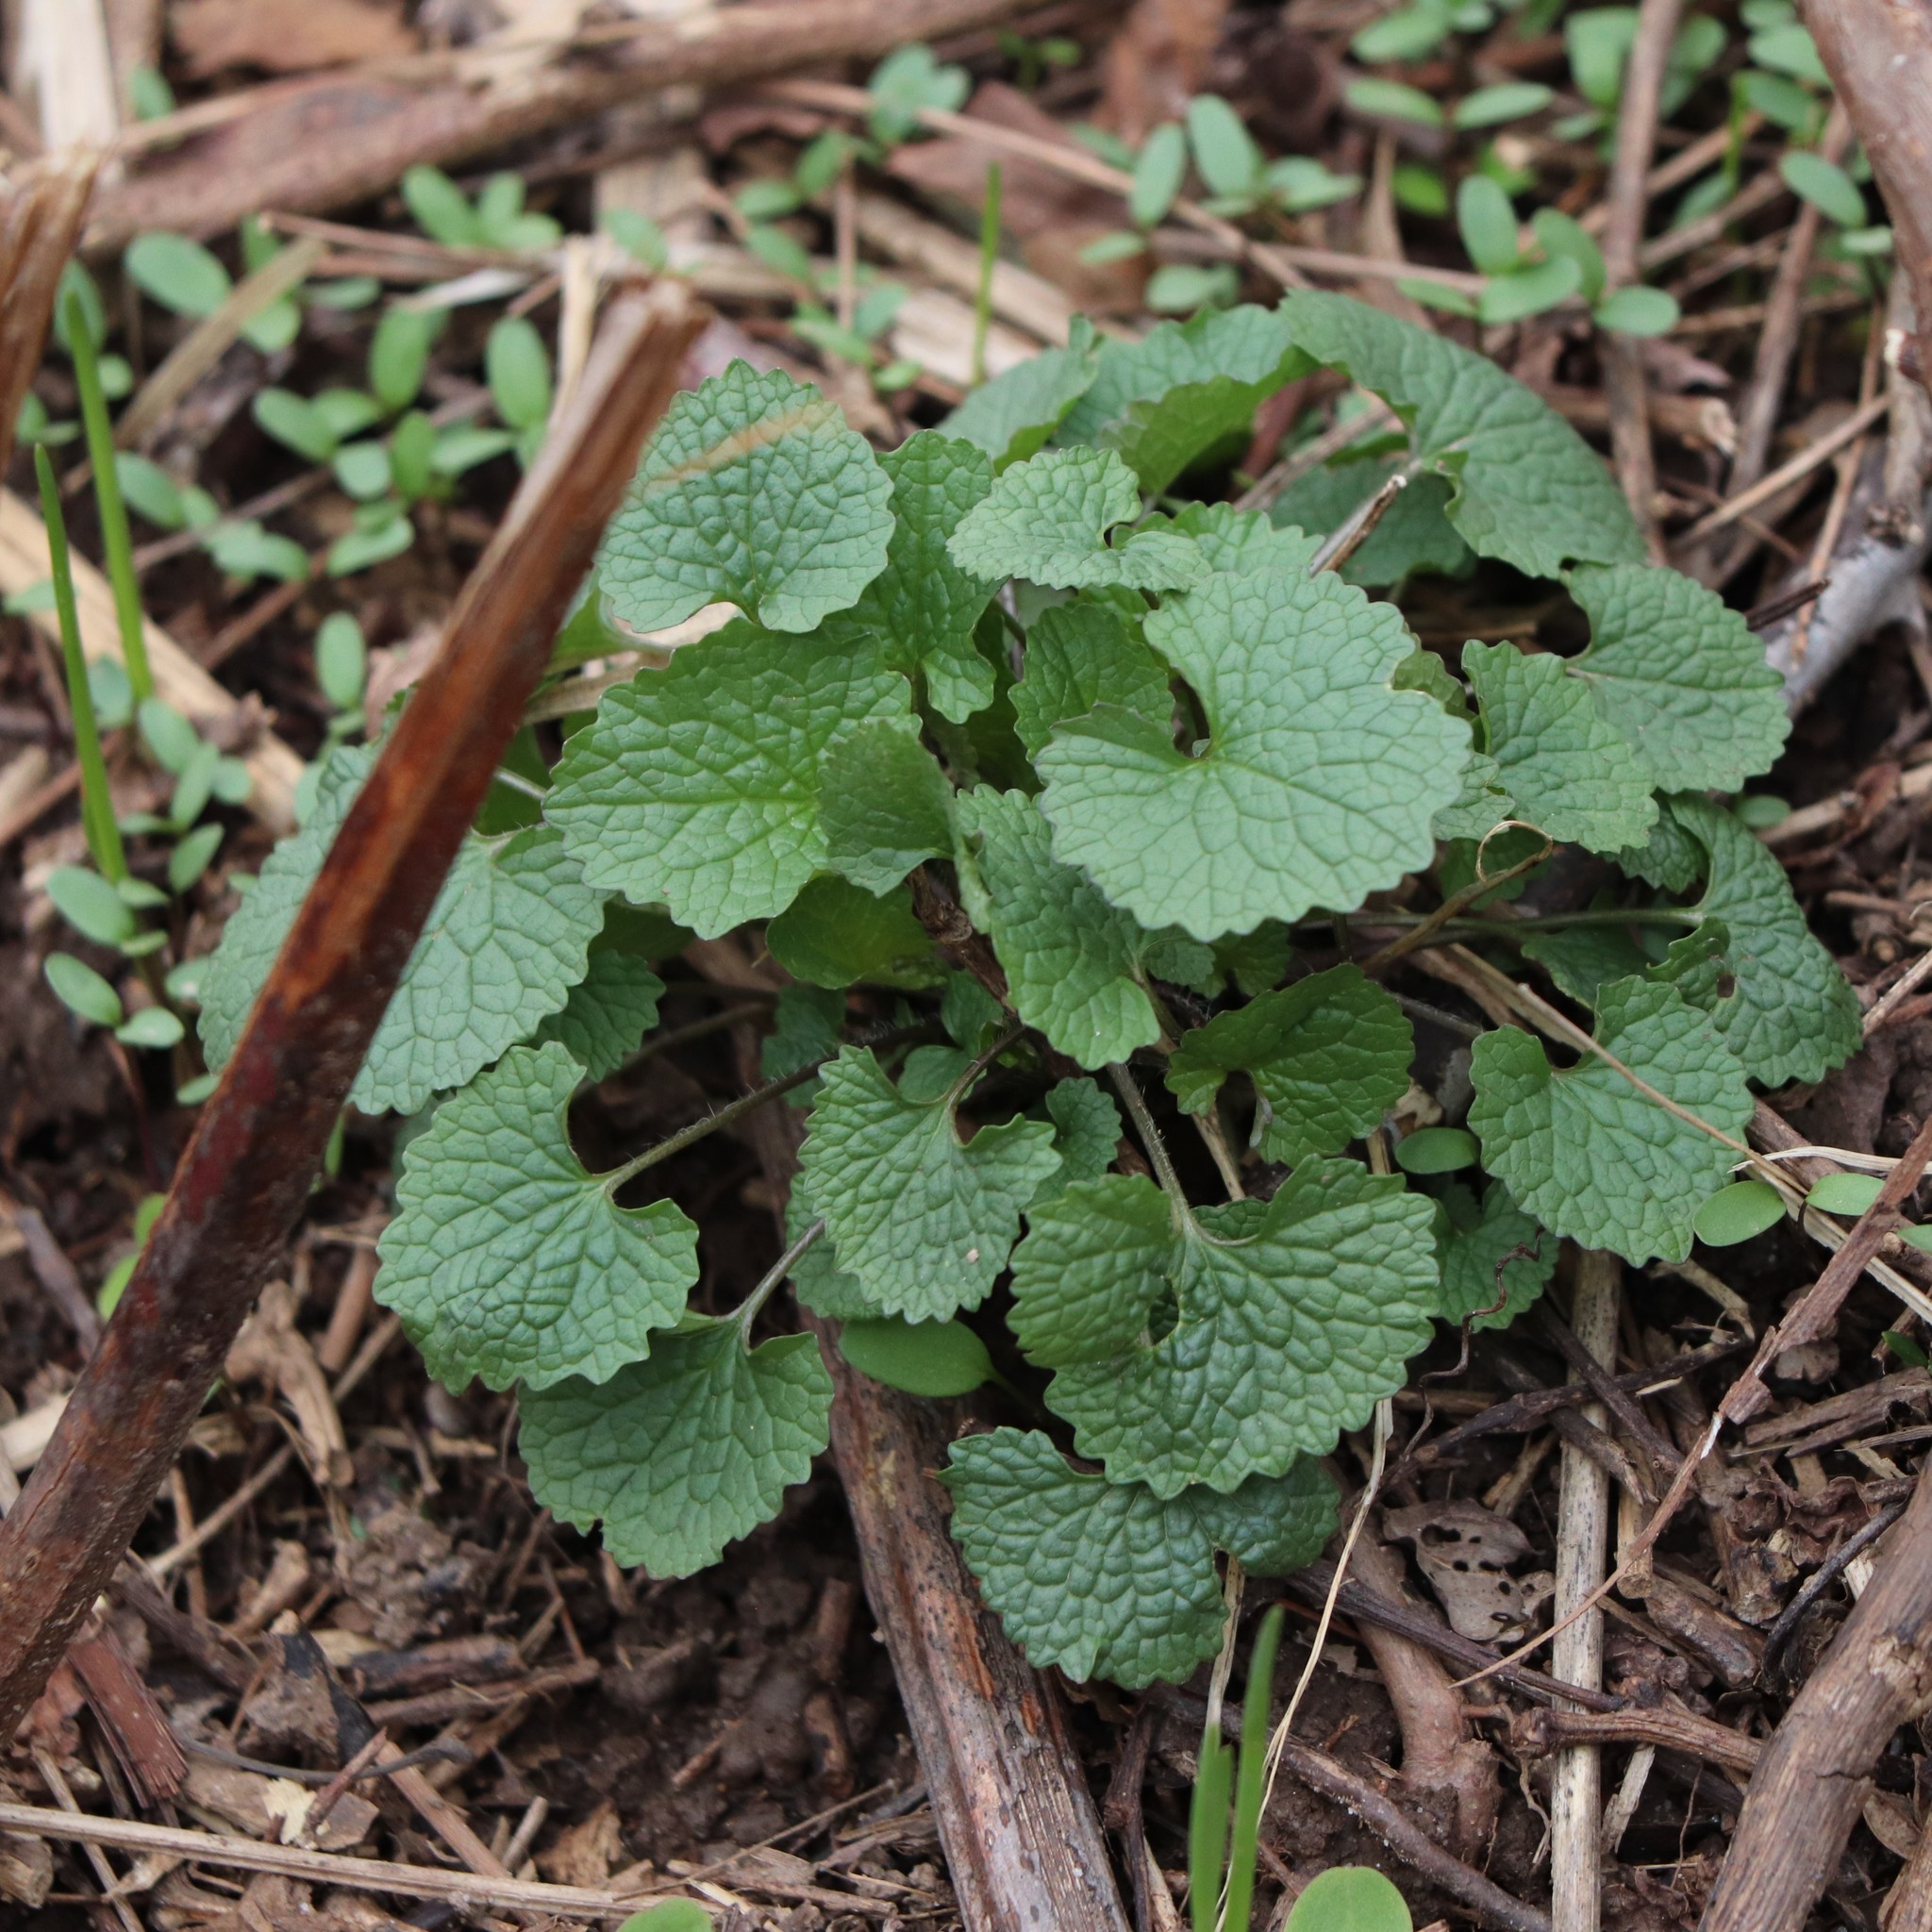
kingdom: Plantae
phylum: Tracheophyta
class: Magnoliopsida
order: Brassicales
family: Brassicaceae
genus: Alliaria
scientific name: Alliaria petiolata
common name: Garlic mustard
